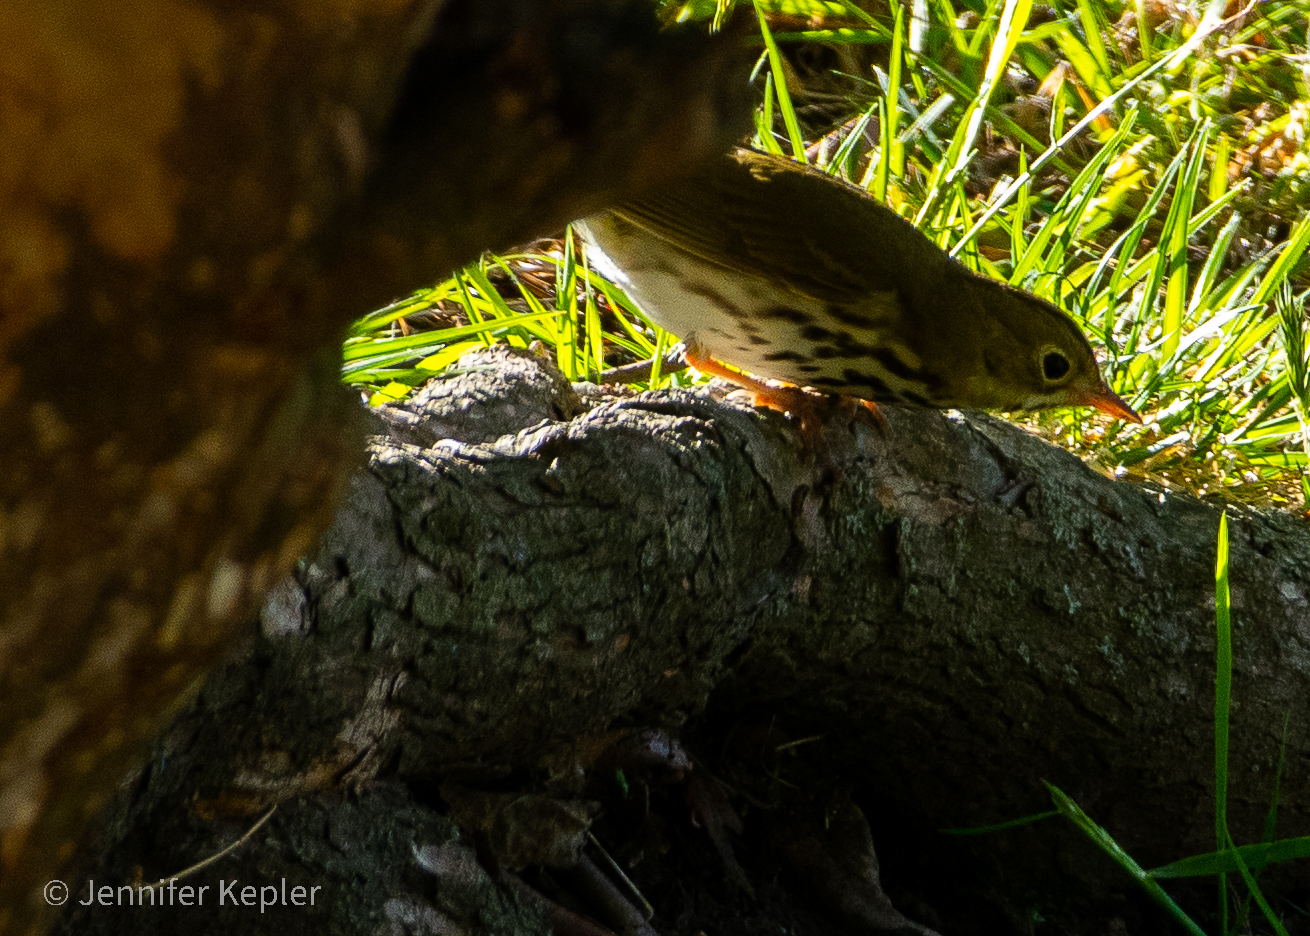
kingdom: Animalia
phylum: Chordata
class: Aves
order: Passeriformes
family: Parulidae
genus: Seiurus
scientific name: Seiurus aurocapilla
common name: Ovenbird
